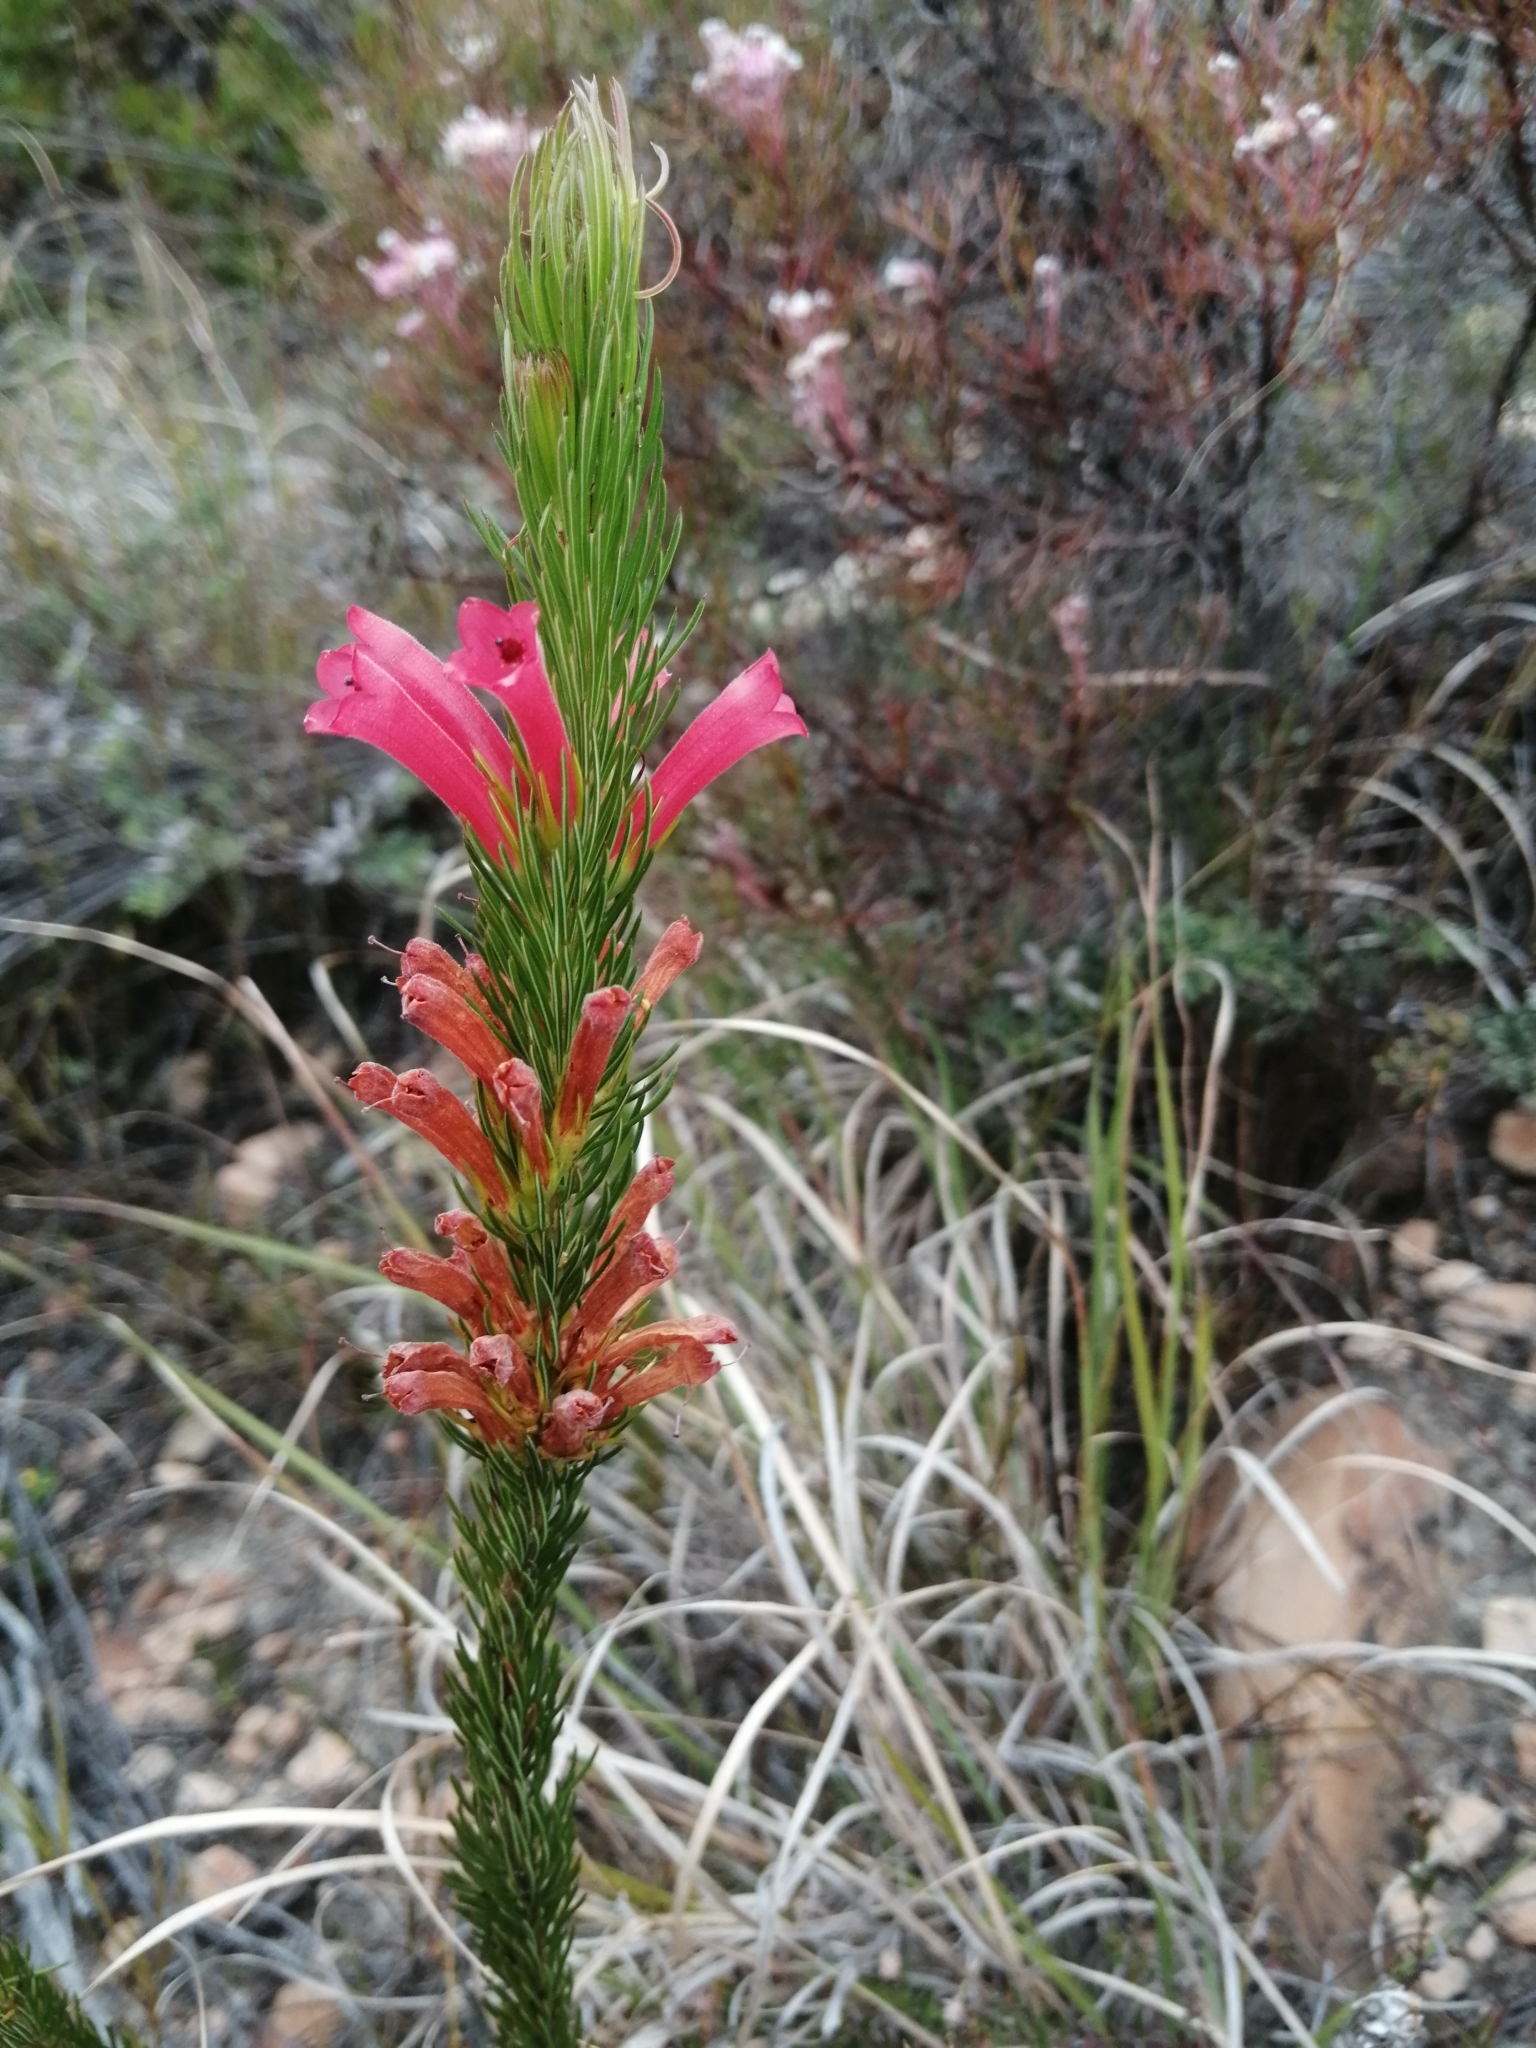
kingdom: Plantae
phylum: Tracheophyta
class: Magnoliopsida
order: Ericales
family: Ericaceae
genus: Erica
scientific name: Erica vestita
